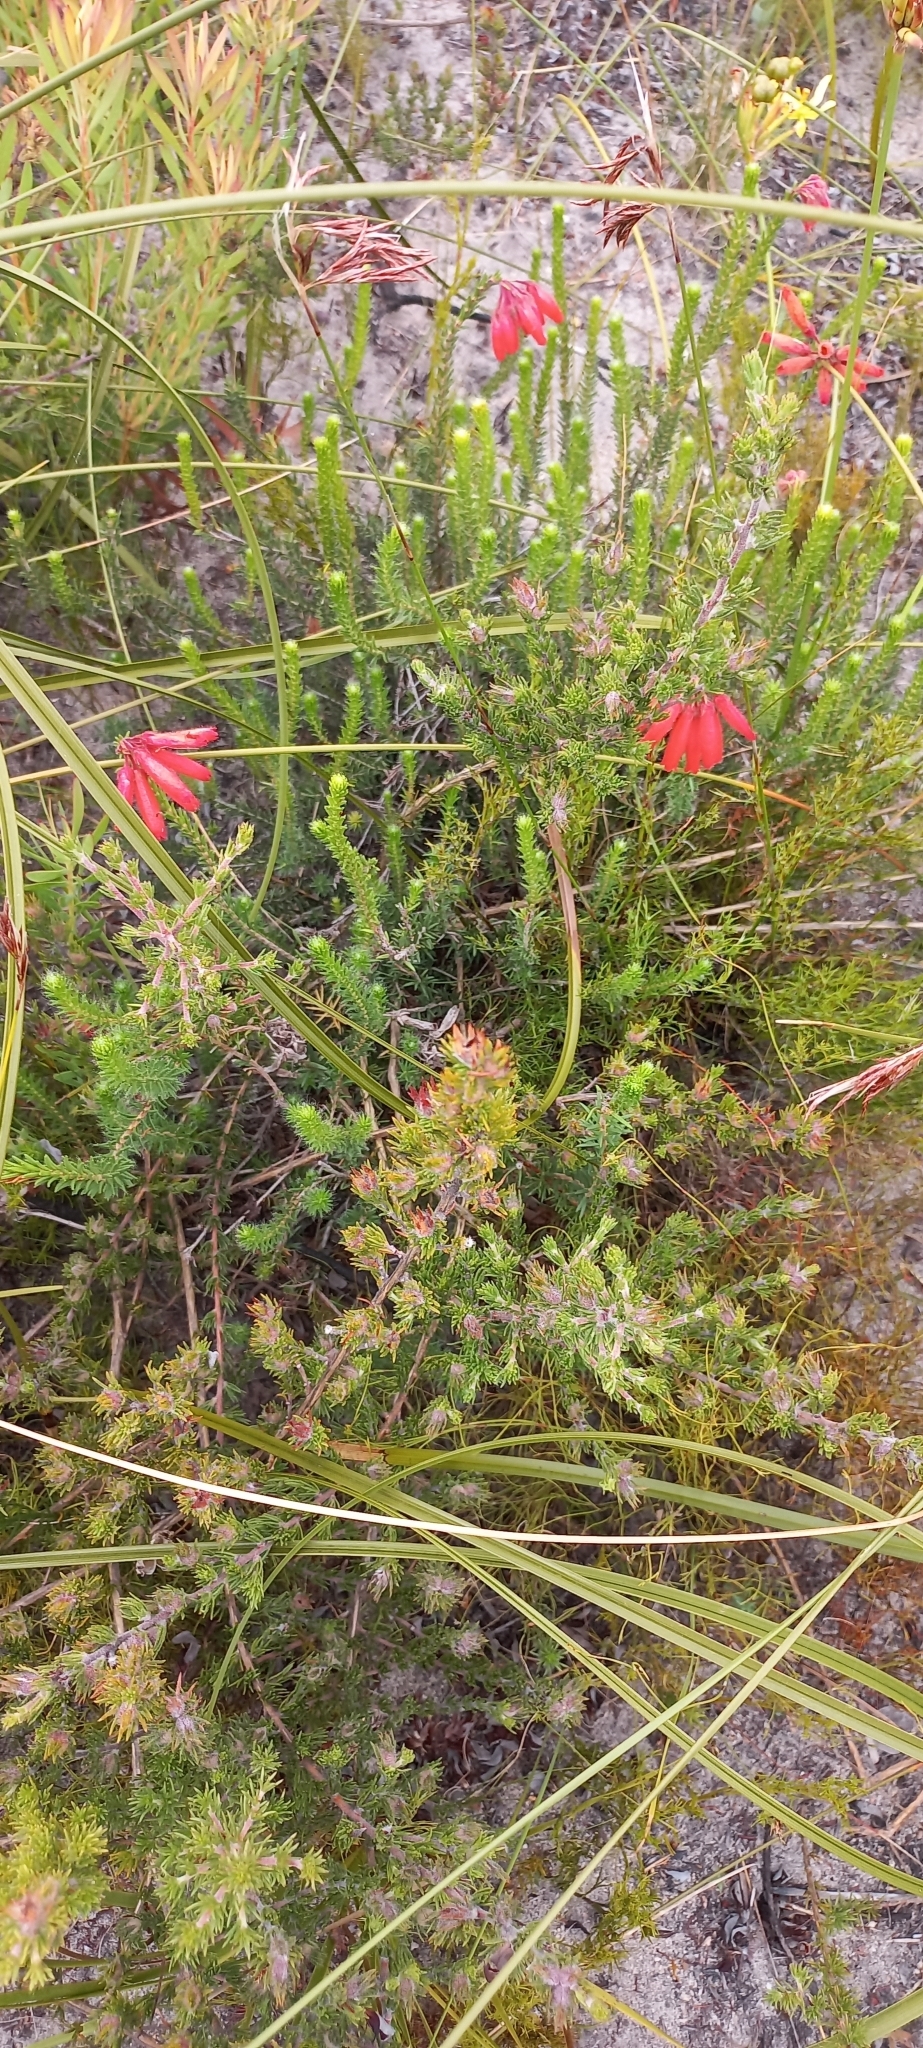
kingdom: Plantae
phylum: Tracheophyta
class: Magnoliopsida
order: Ericales
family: Ericaceae
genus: Erica
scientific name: Erica cerinthoides
